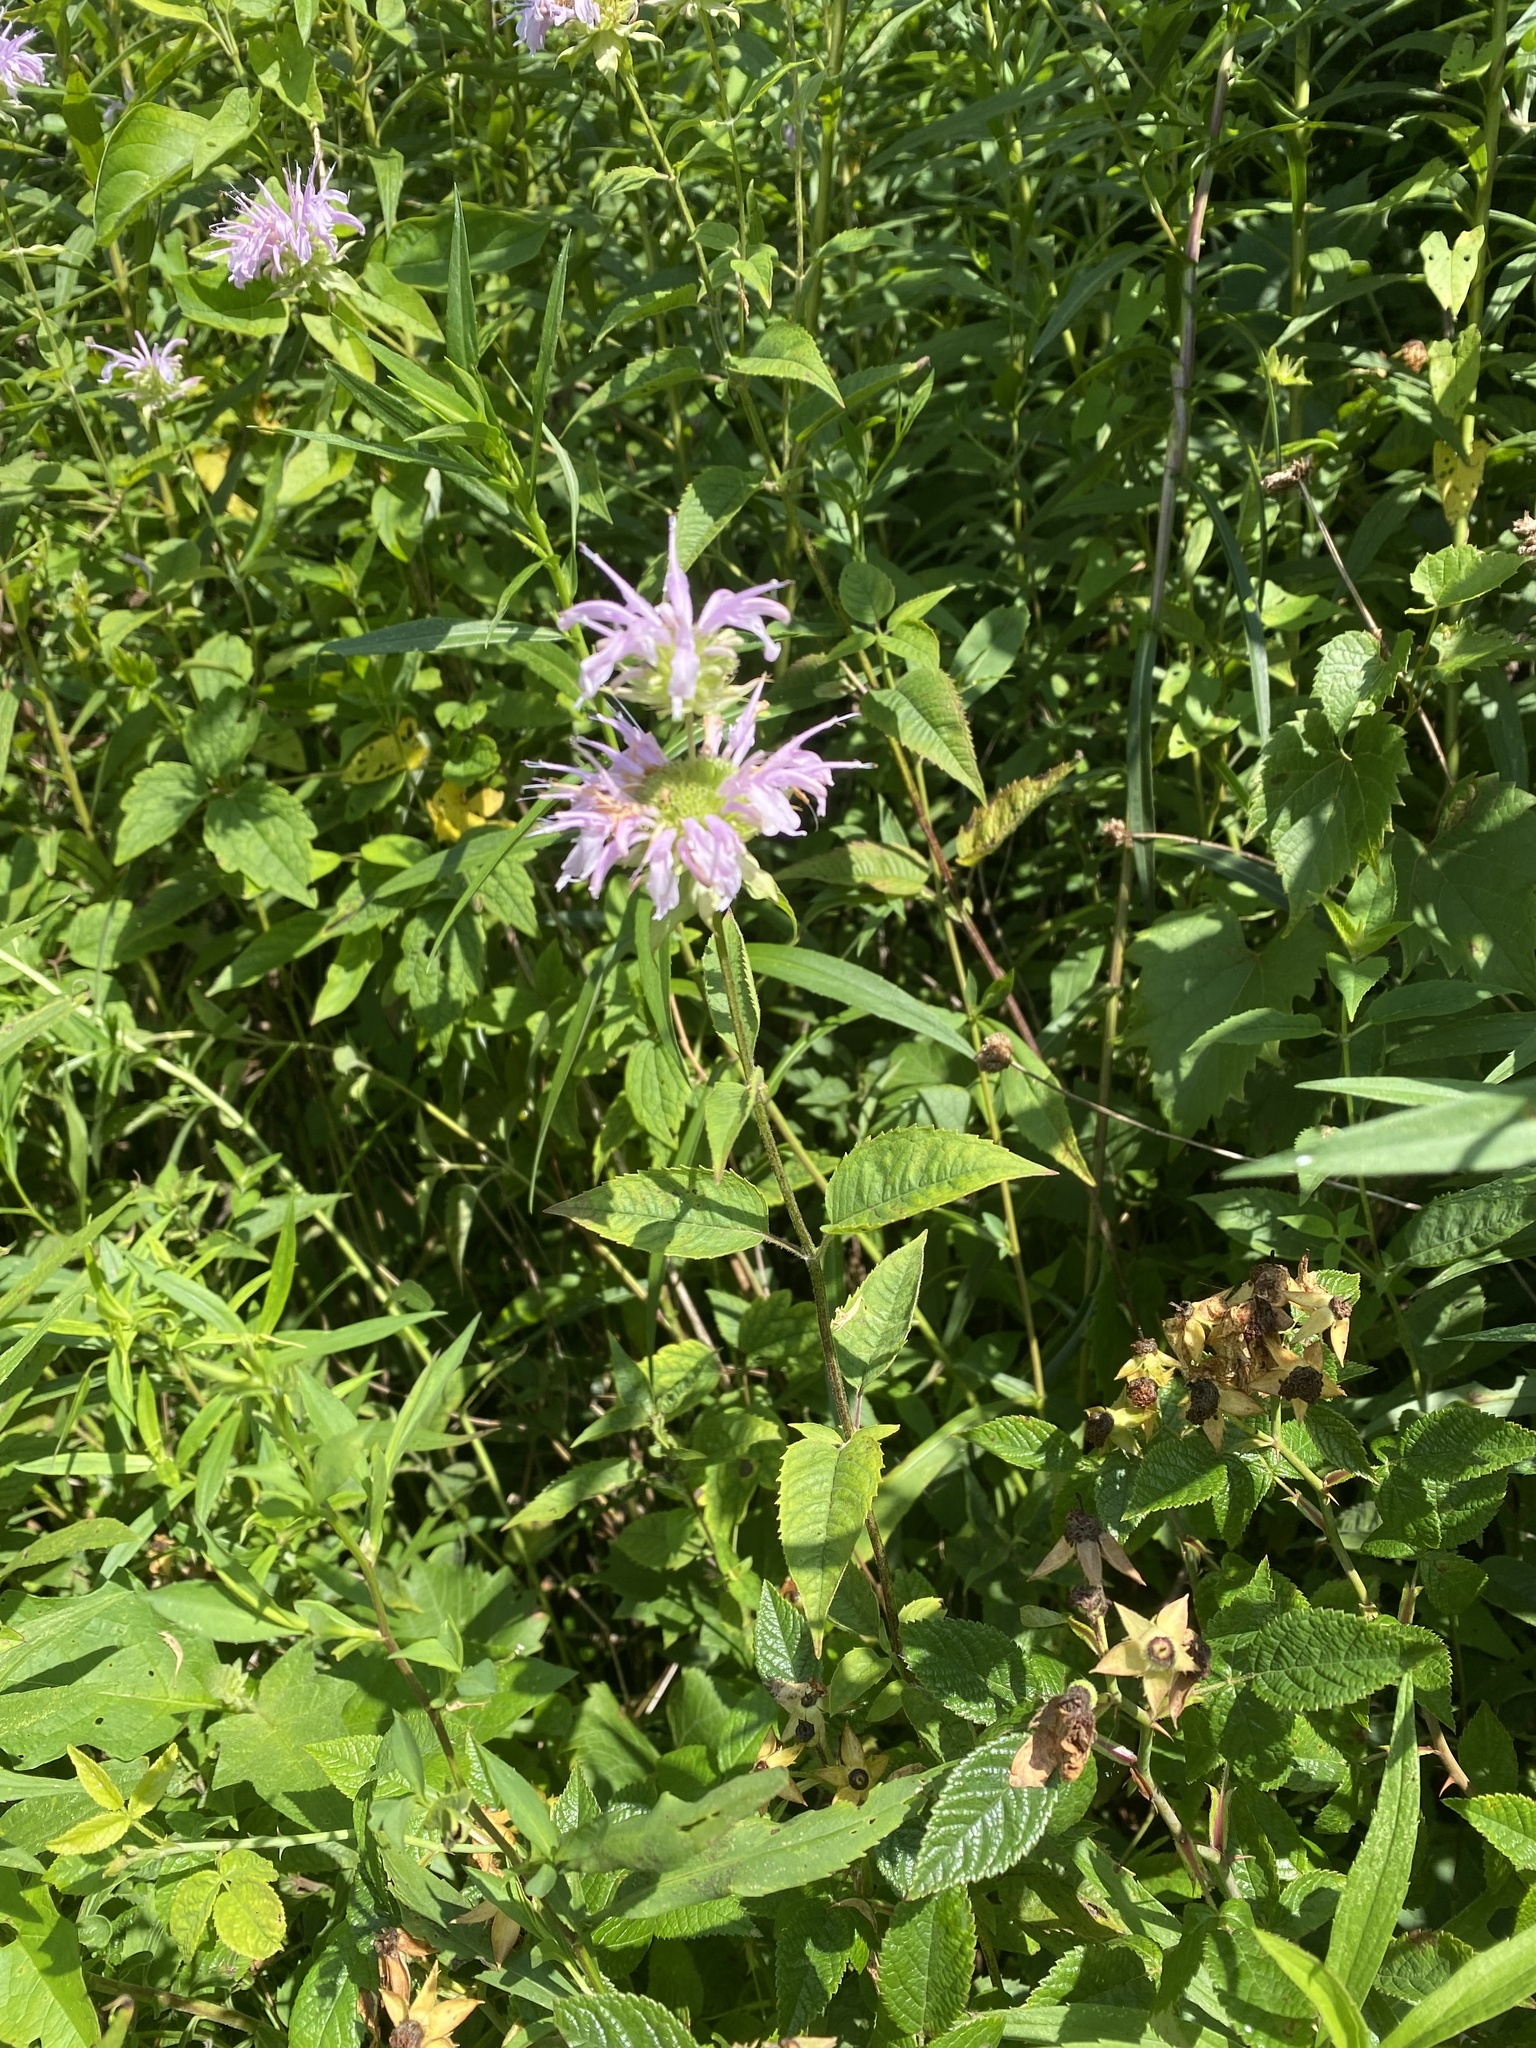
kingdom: Plantae
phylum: Tracheophyta
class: Magnoliopsida
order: Lamiales
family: Lamiaceae
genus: Monarda
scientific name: Monarda fistulosa
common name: Purple beebalm
